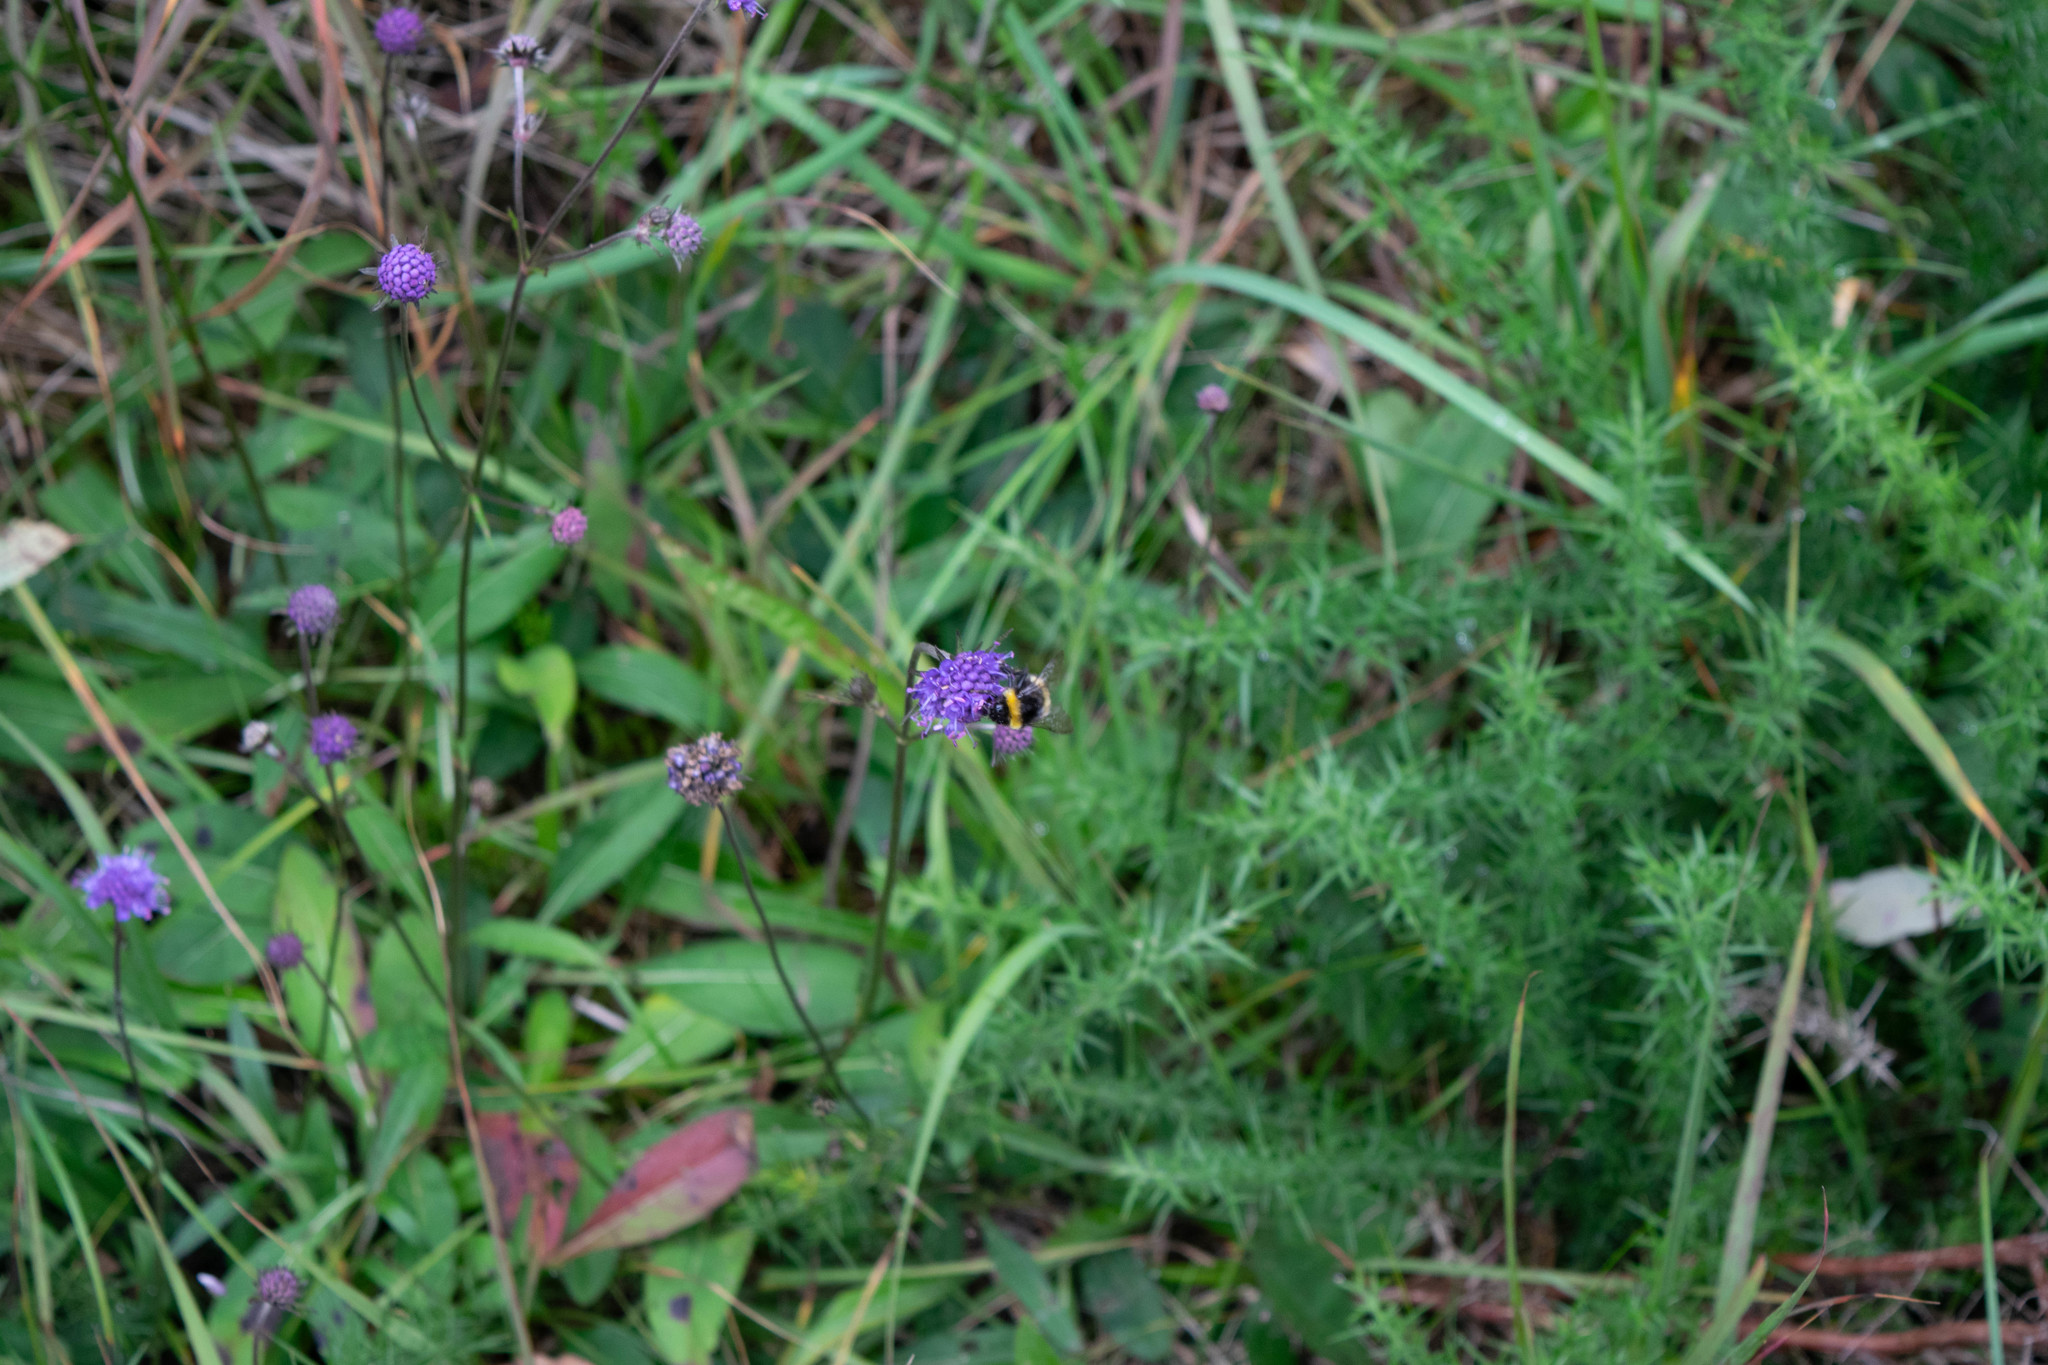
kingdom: Plantae
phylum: Tracheophyta
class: Magnoliopsida
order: Dipsacales
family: Caprifoliaceae
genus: Succisa
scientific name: Succisa pratensis
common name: Devil's-bit
